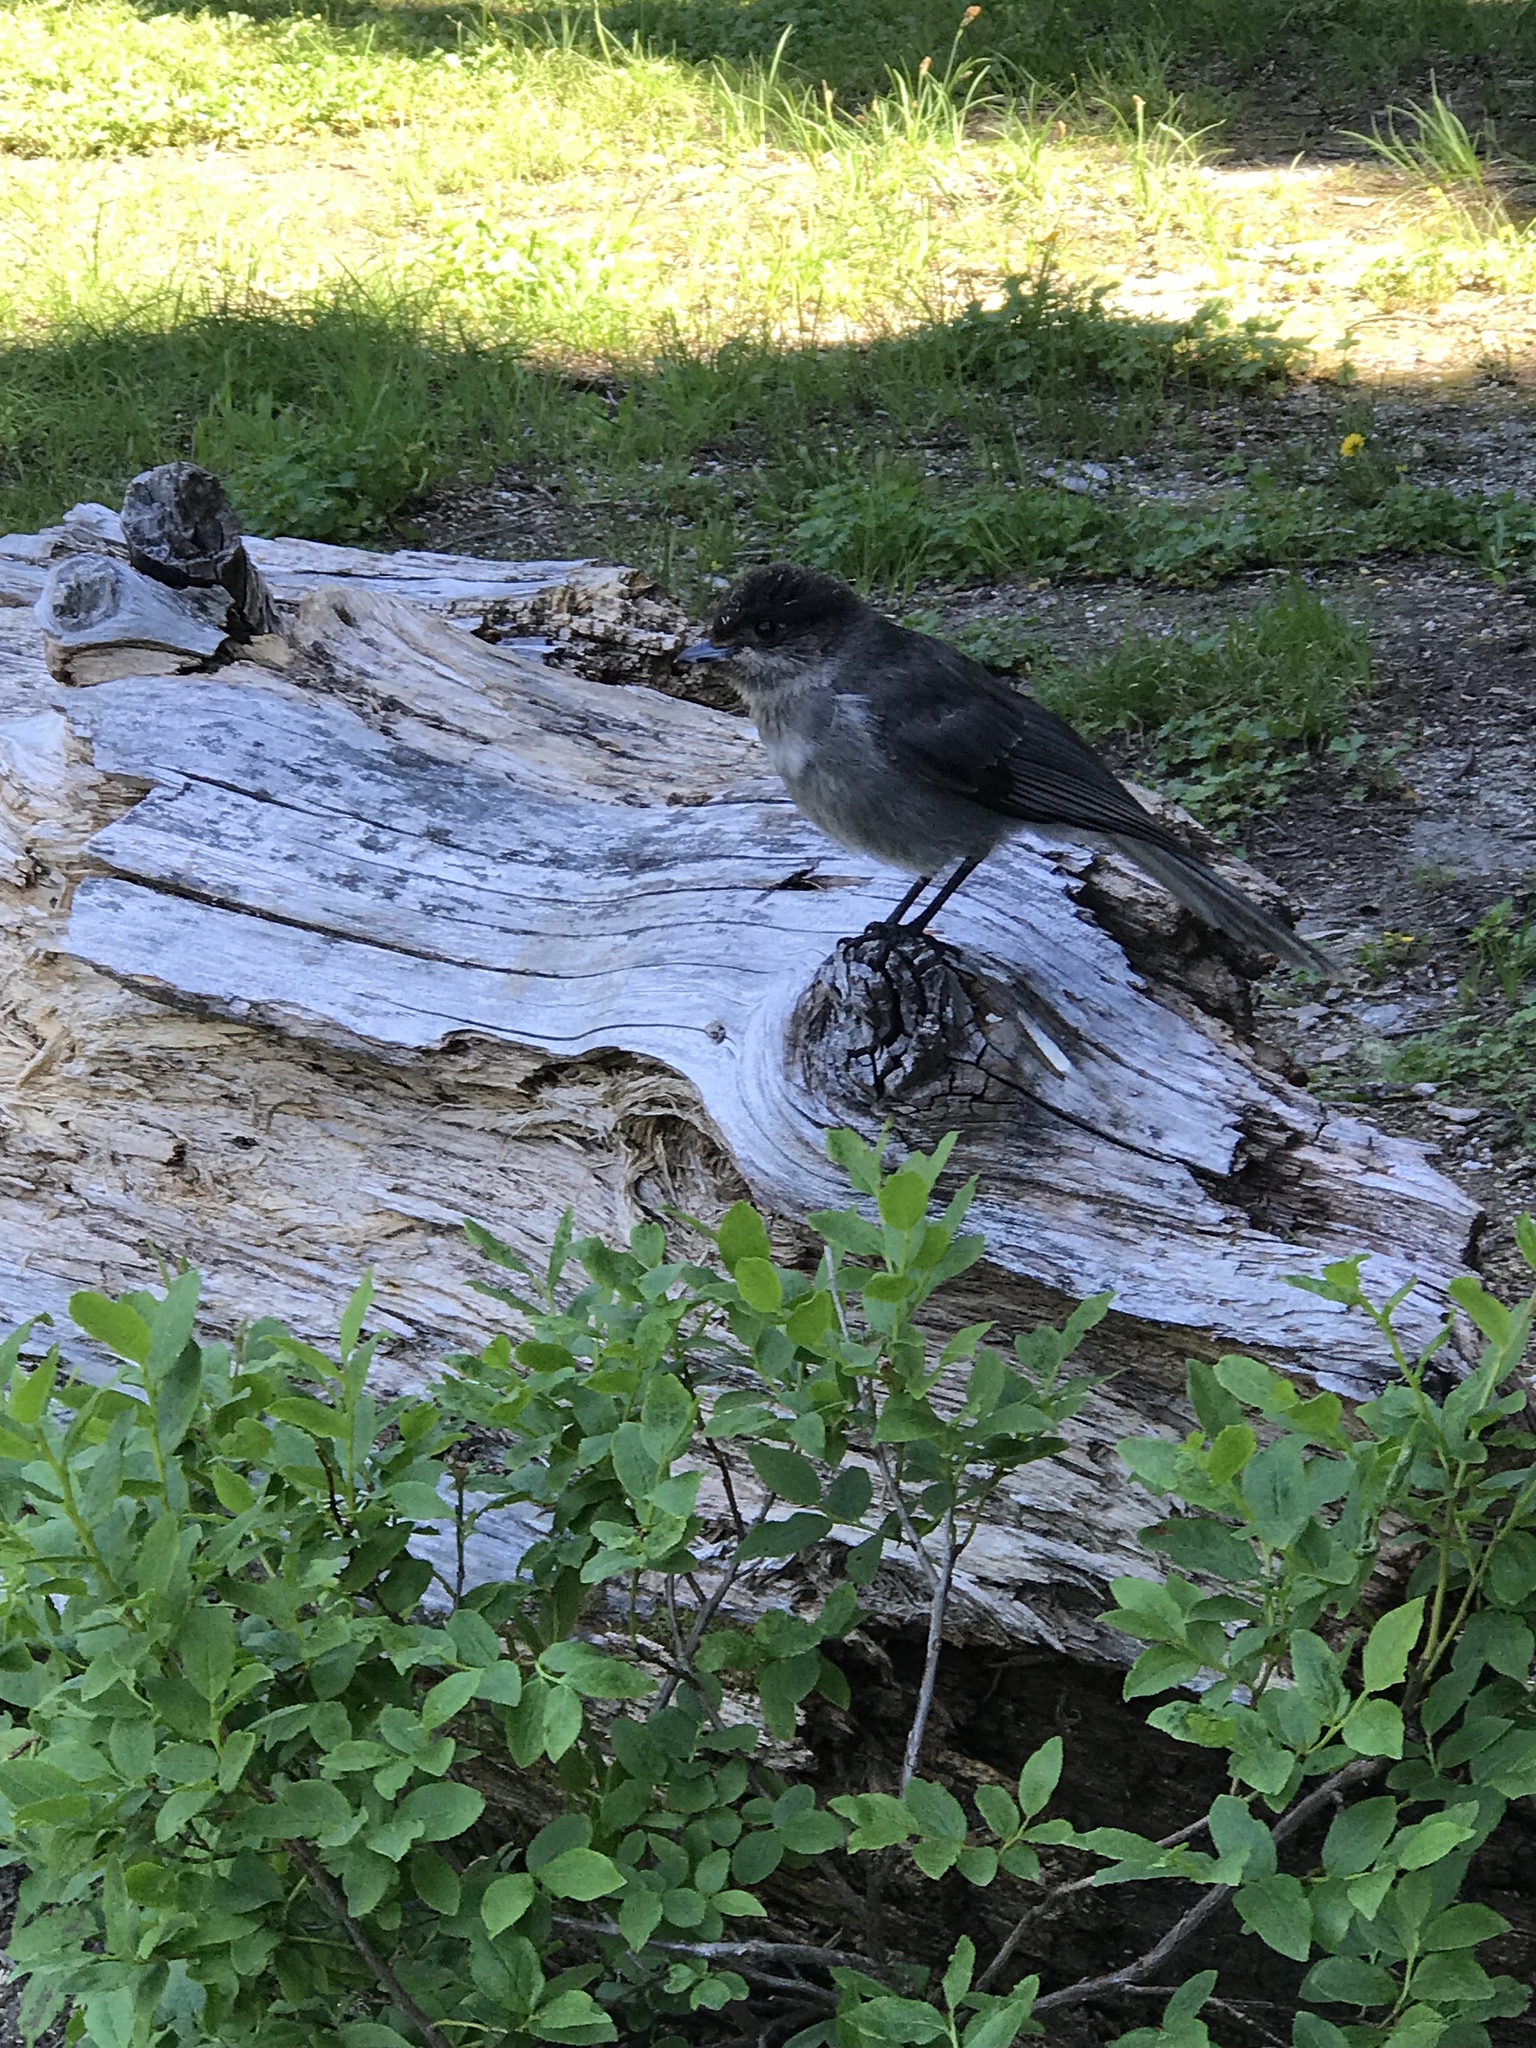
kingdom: Animalia
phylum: Chordata
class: Aves
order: Passeriformes
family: Corvidae
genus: Perisoreus
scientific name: Perisoreus canadensis
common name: Gray jay
